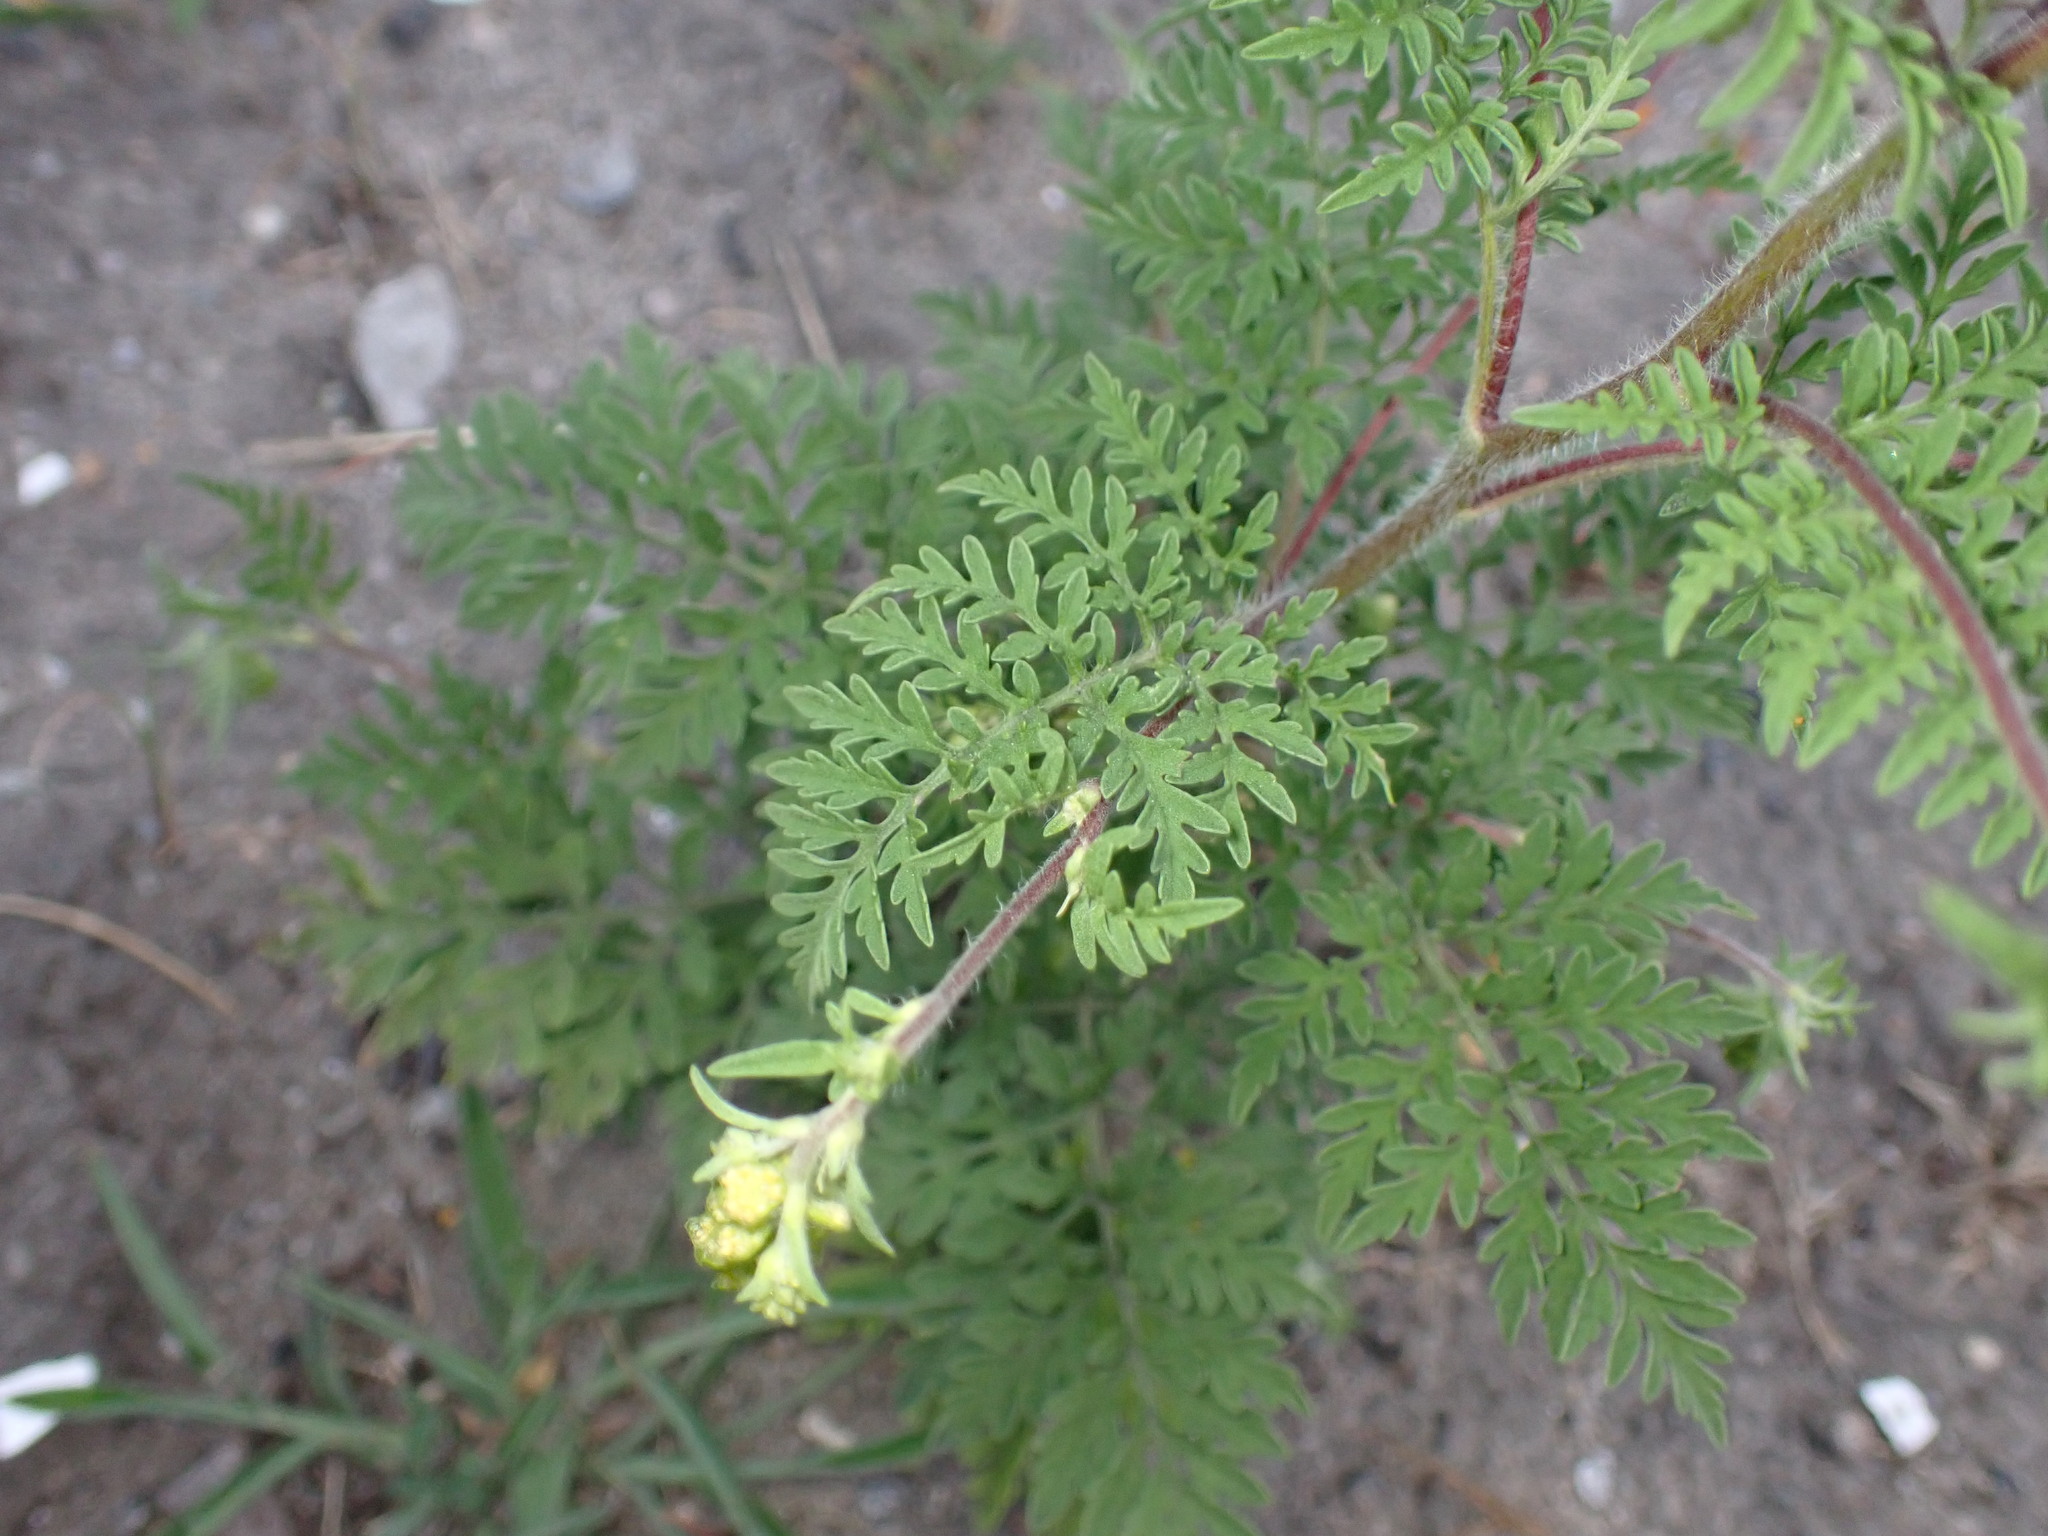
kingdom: Plantae
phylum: Tracheophyta
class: Magnoliopsida
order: Asterales
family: Asteraceae
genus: Ambrosia
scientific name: Ambrosia artemisiifolia
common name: Annual ragweed
